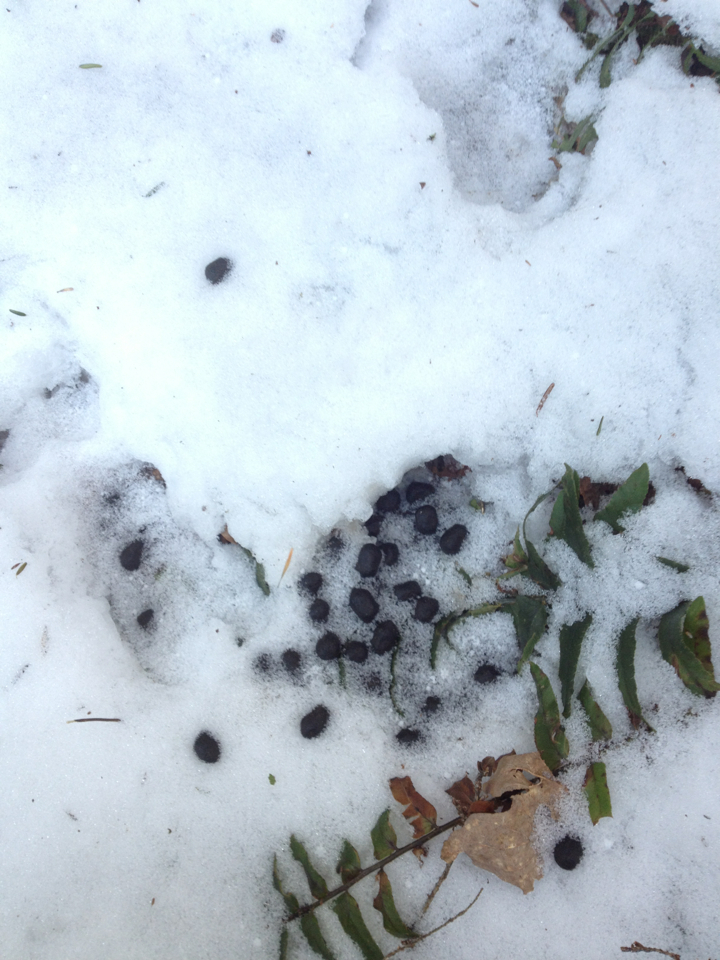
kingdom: Animalia
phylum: Chordata
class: Mammalia
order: Artiodactyla
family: Cervidae
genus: Odocoileus
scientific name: Odocoileus virginianus
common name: White-tailed deer
